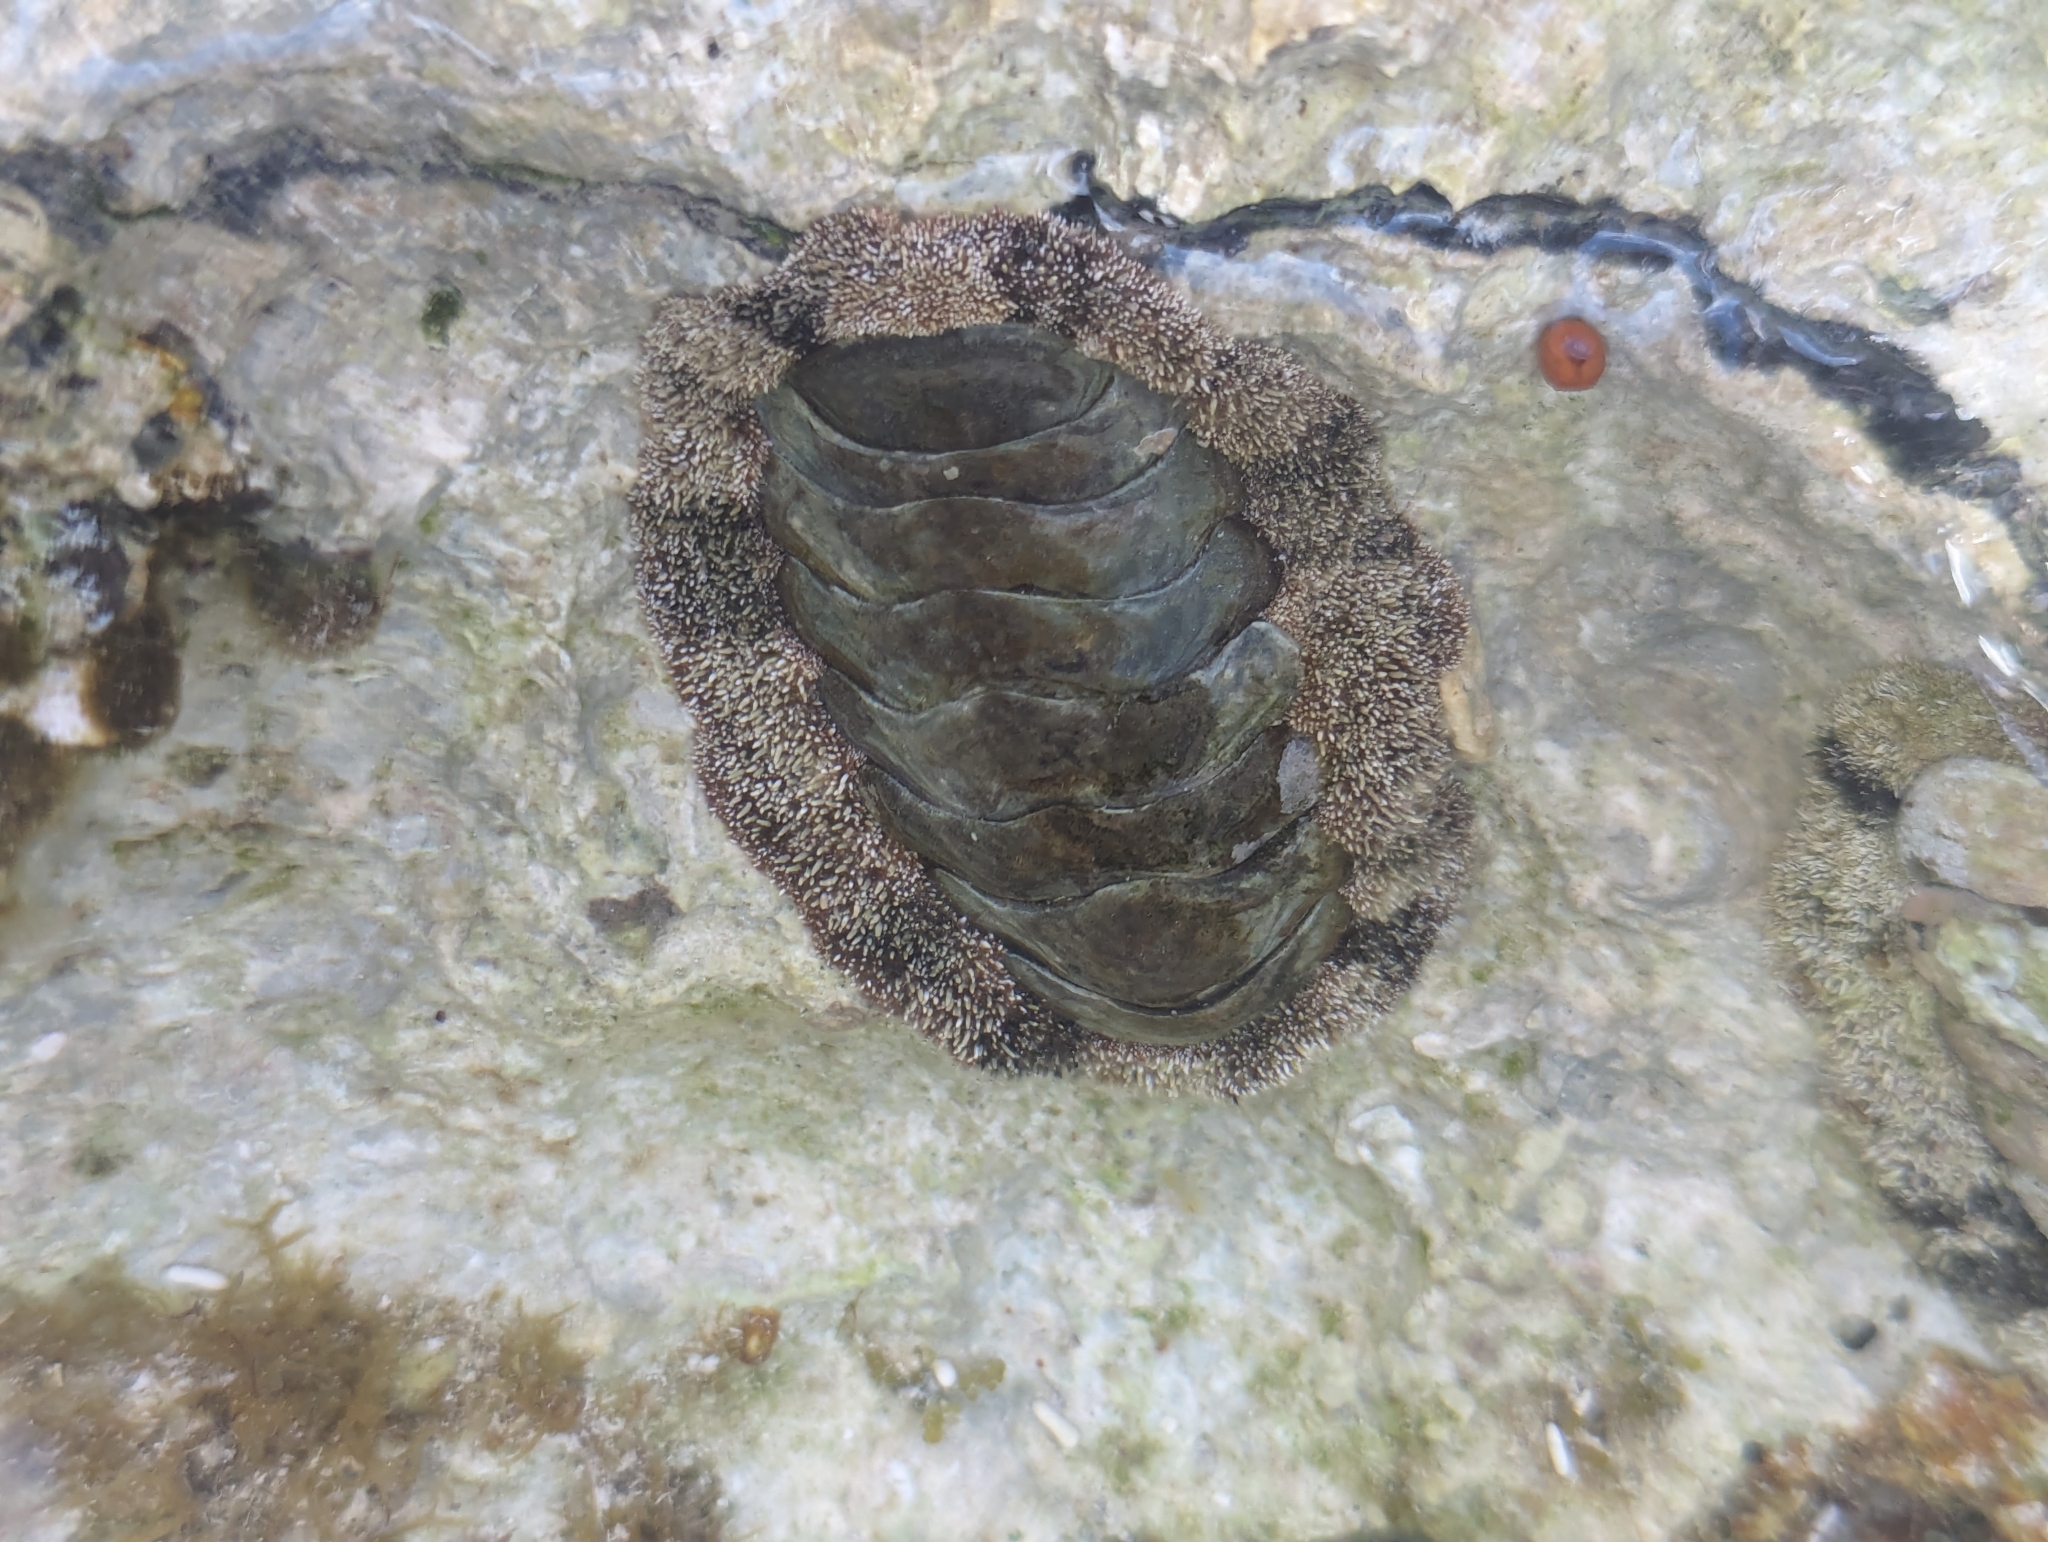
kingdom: Animalia
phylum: Mollusca
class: Polyplacophora
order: Chitonida
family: Chitonidae
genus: Acanthopleura
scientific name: Acanthopleura granulata
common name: West indian fuzzy chiton
